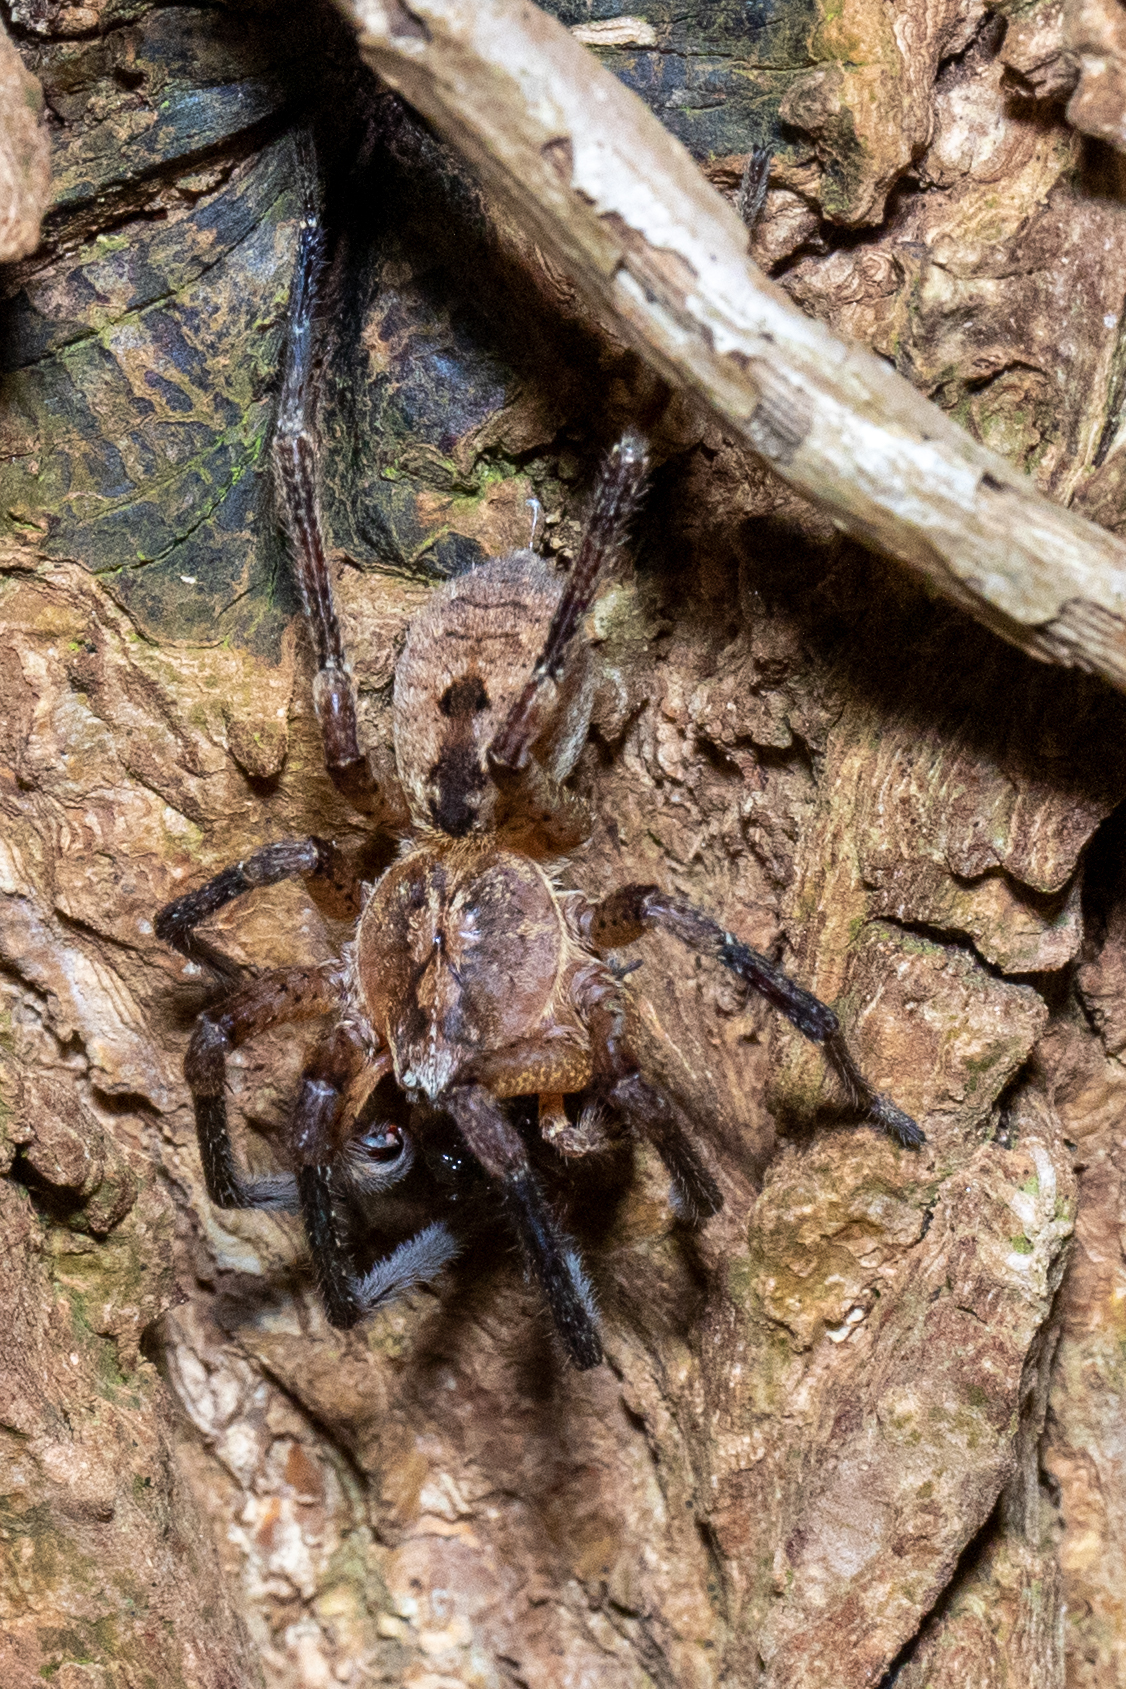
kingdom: Animalia
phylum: Arthropoda
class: Arachnida
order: Araneae
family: Zoropsidae
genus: Zoropsis
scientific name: Zoropsis spinimana
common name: Zoropsid spider
